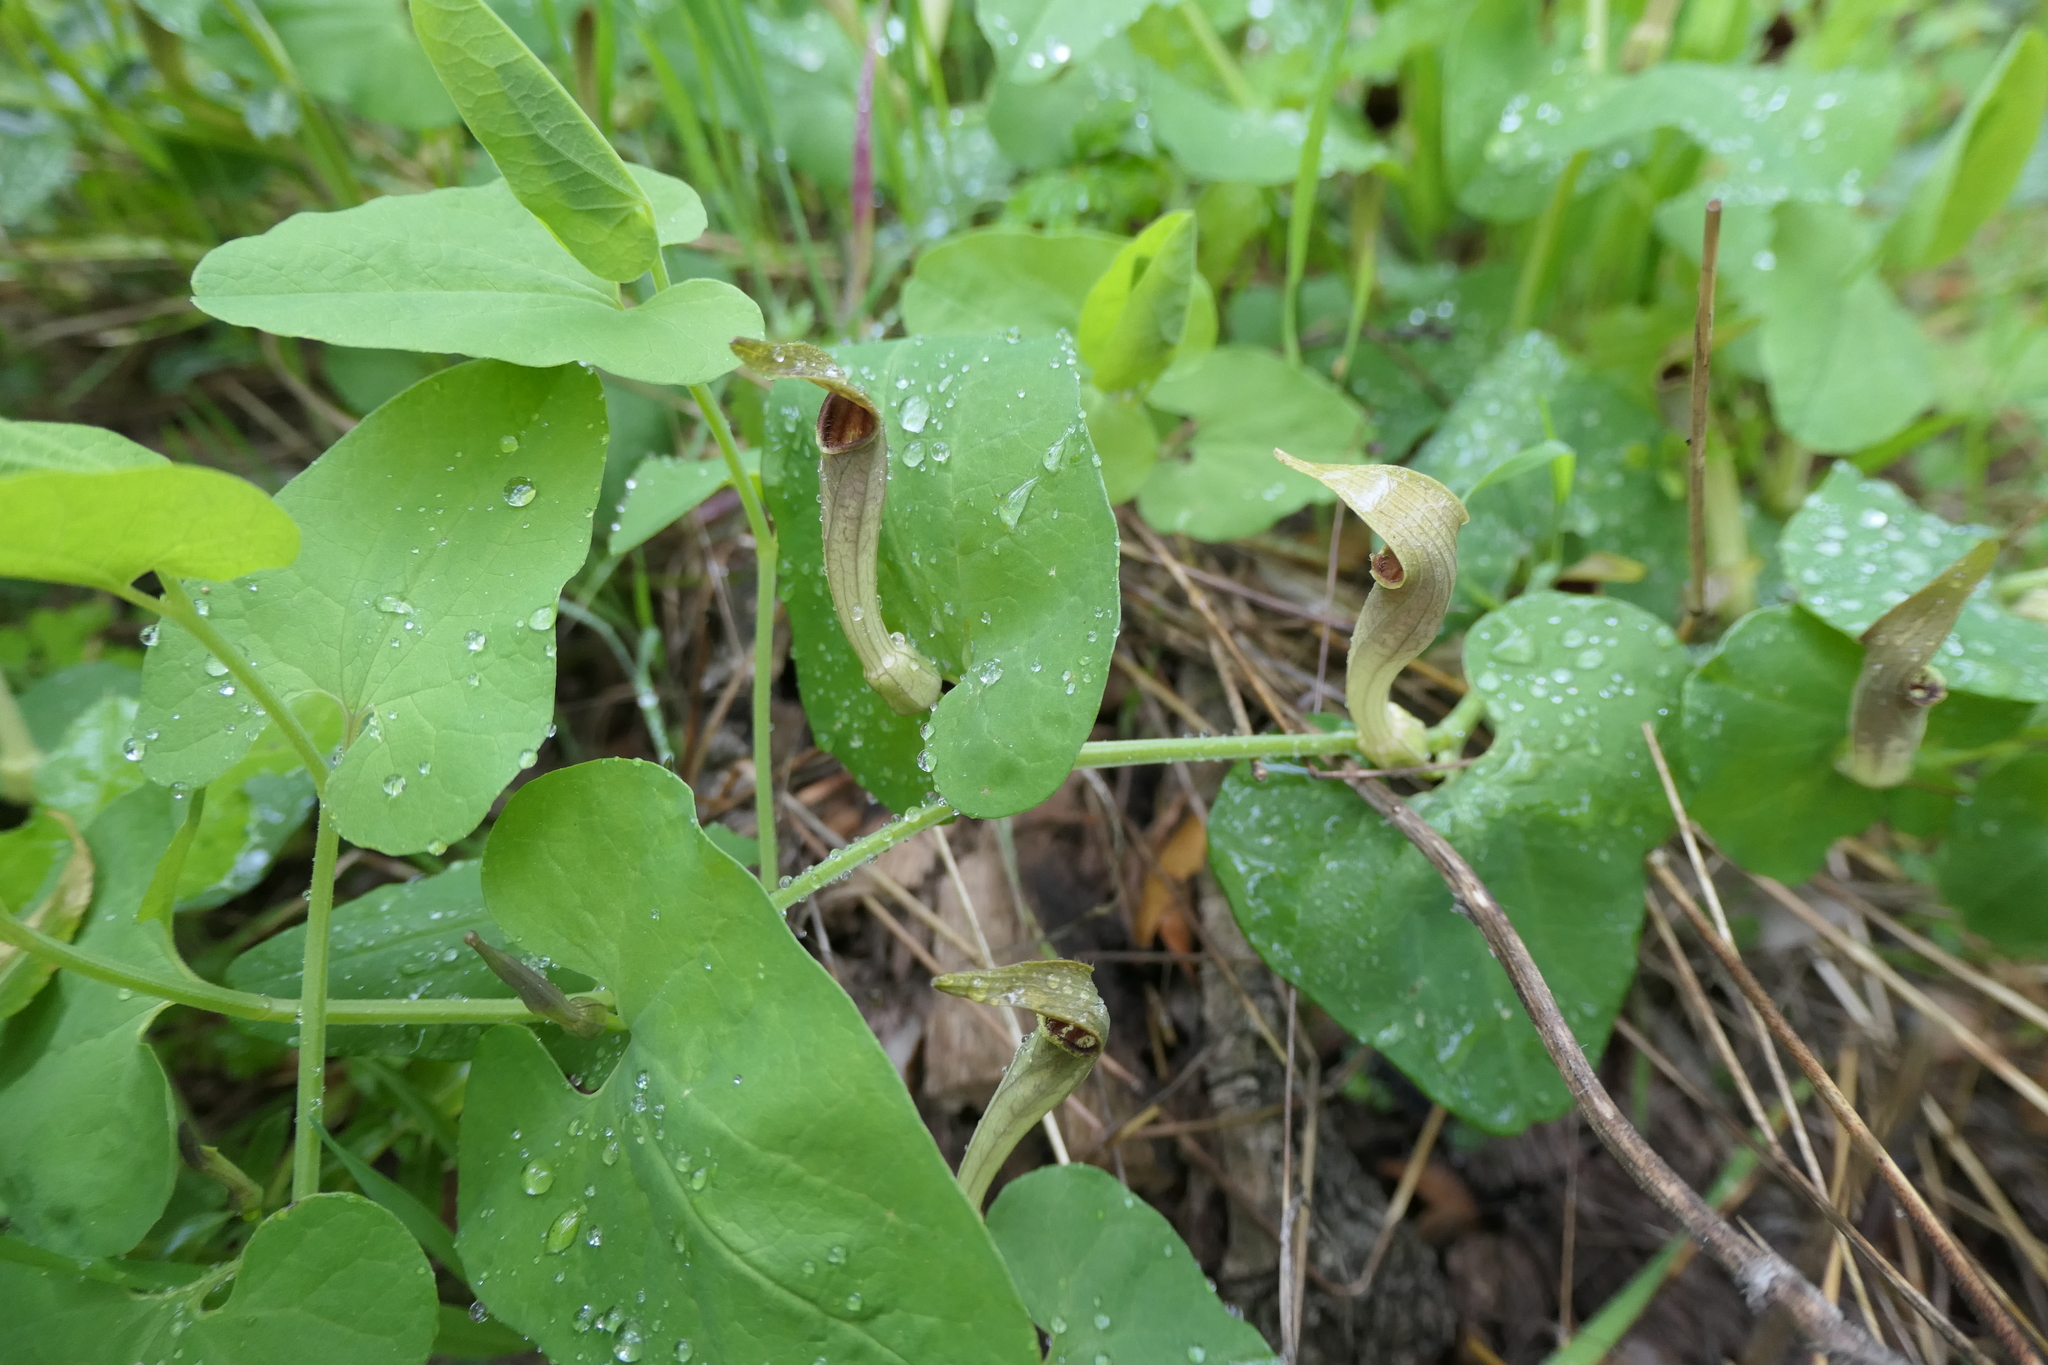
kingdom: Plantae
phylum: Tracheophyta
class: Magnoliopsida
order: Piperales
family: Aristolochiaceae
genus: Aristolochia
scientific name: Aristolochia paucinervis
